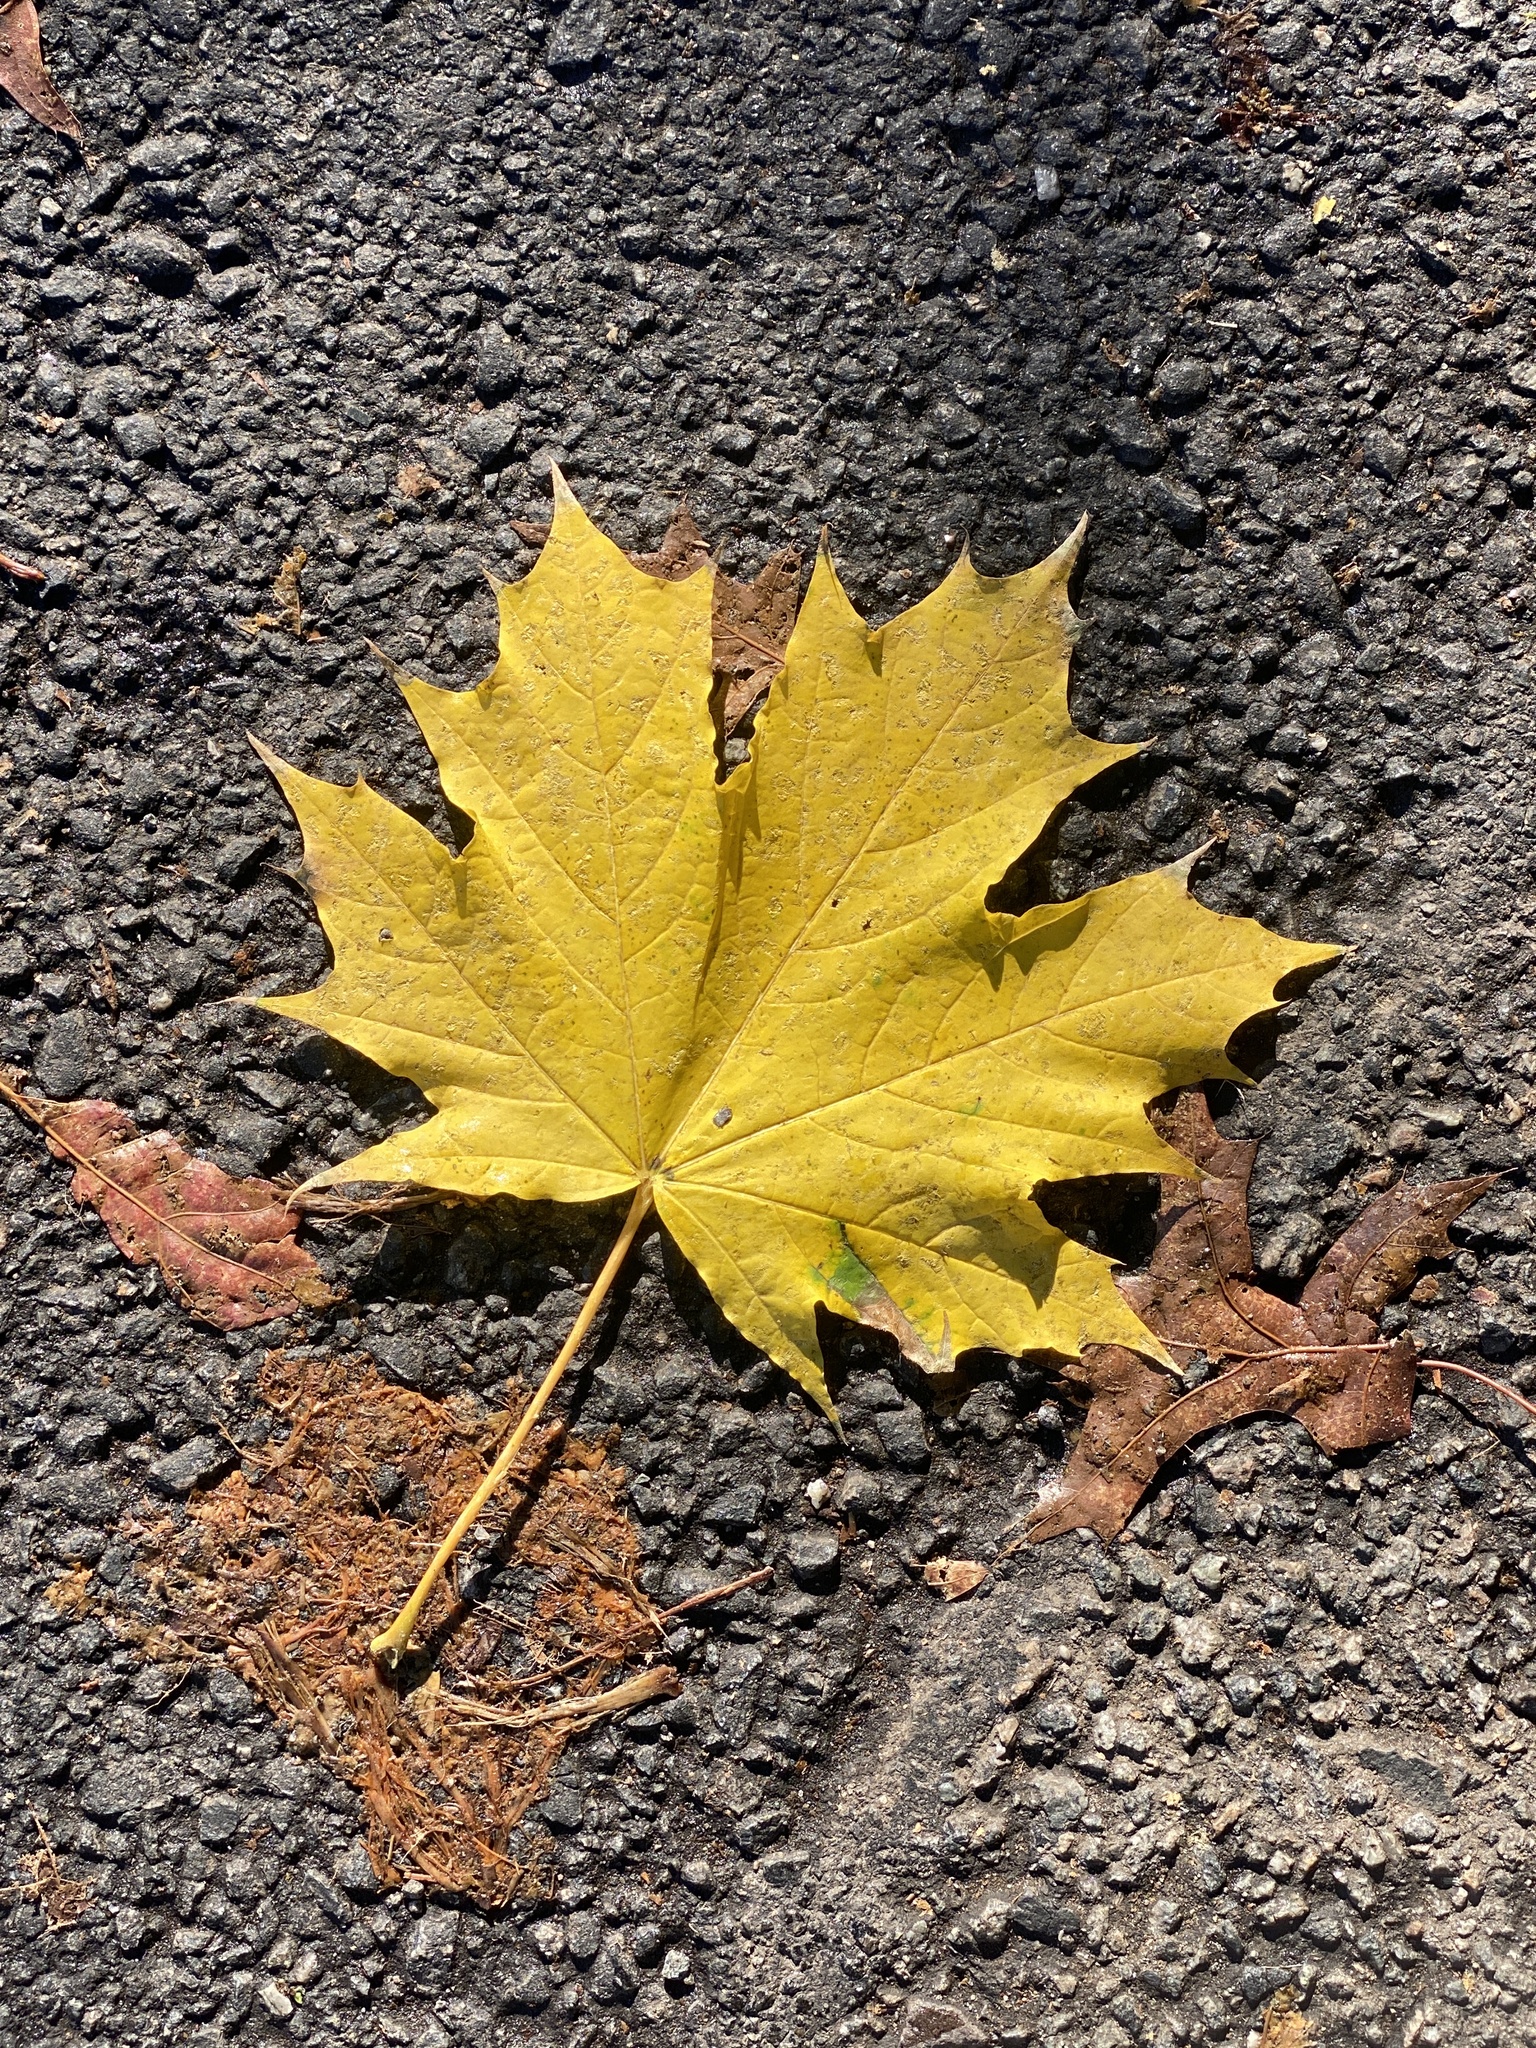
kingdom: Plantae
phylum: Tracheophyta
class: Magnoliopsida
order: Sapindales
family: Sapindaceae
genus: Acer
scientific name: Acer platanoides
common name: Norway maple
